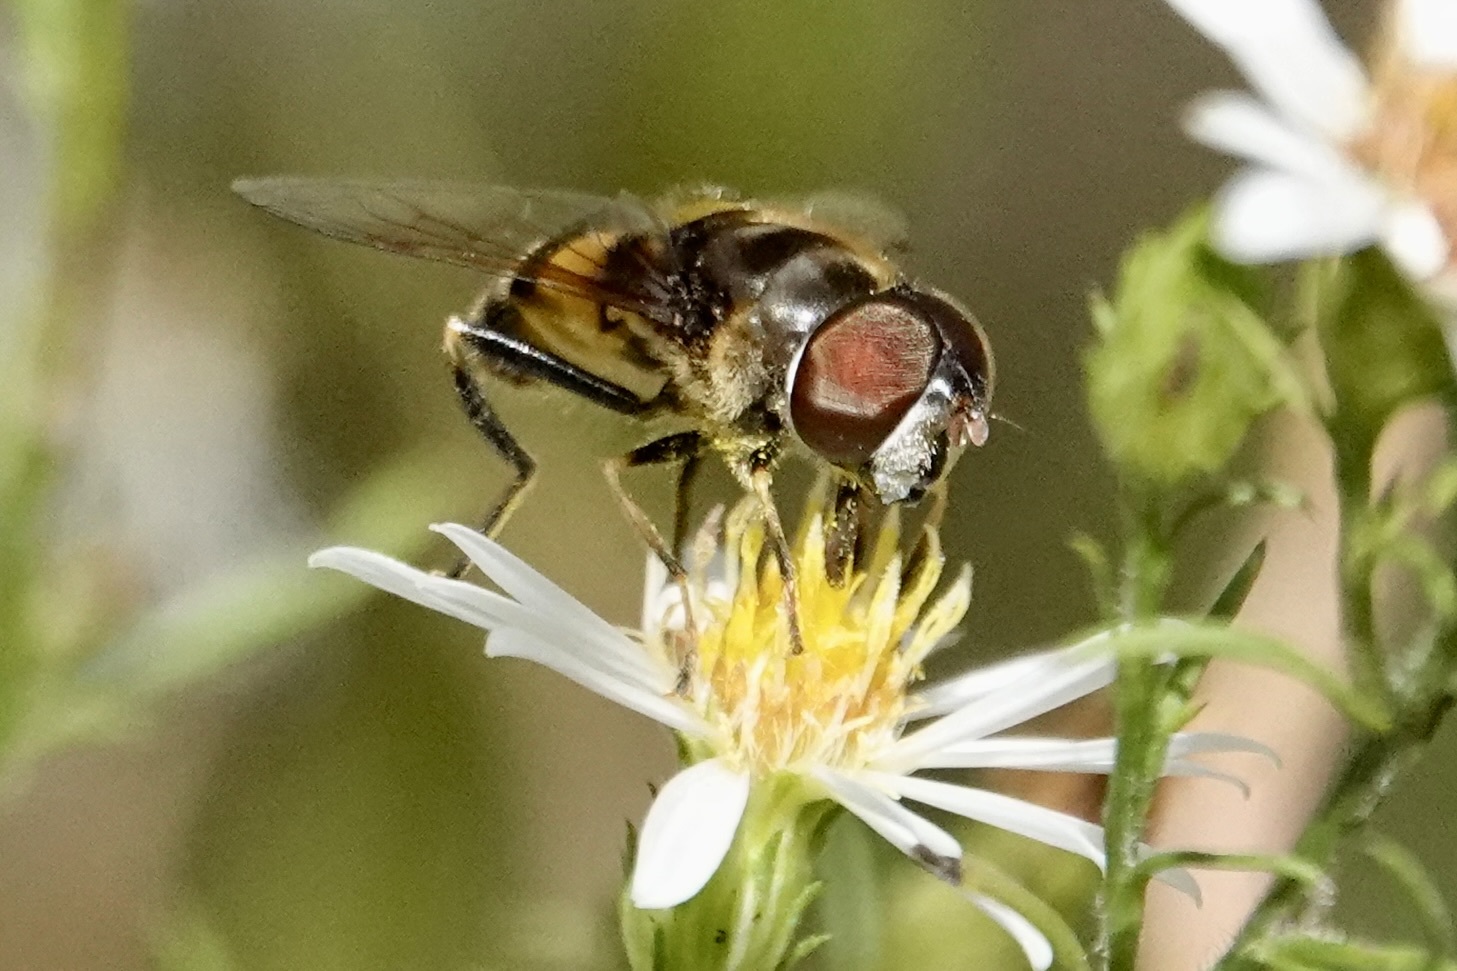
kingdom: Animalia
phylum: Arthropoda
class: Insecta
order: Diptera
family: Syrphidae
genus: Eristalis
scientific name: Eristalis transversa
